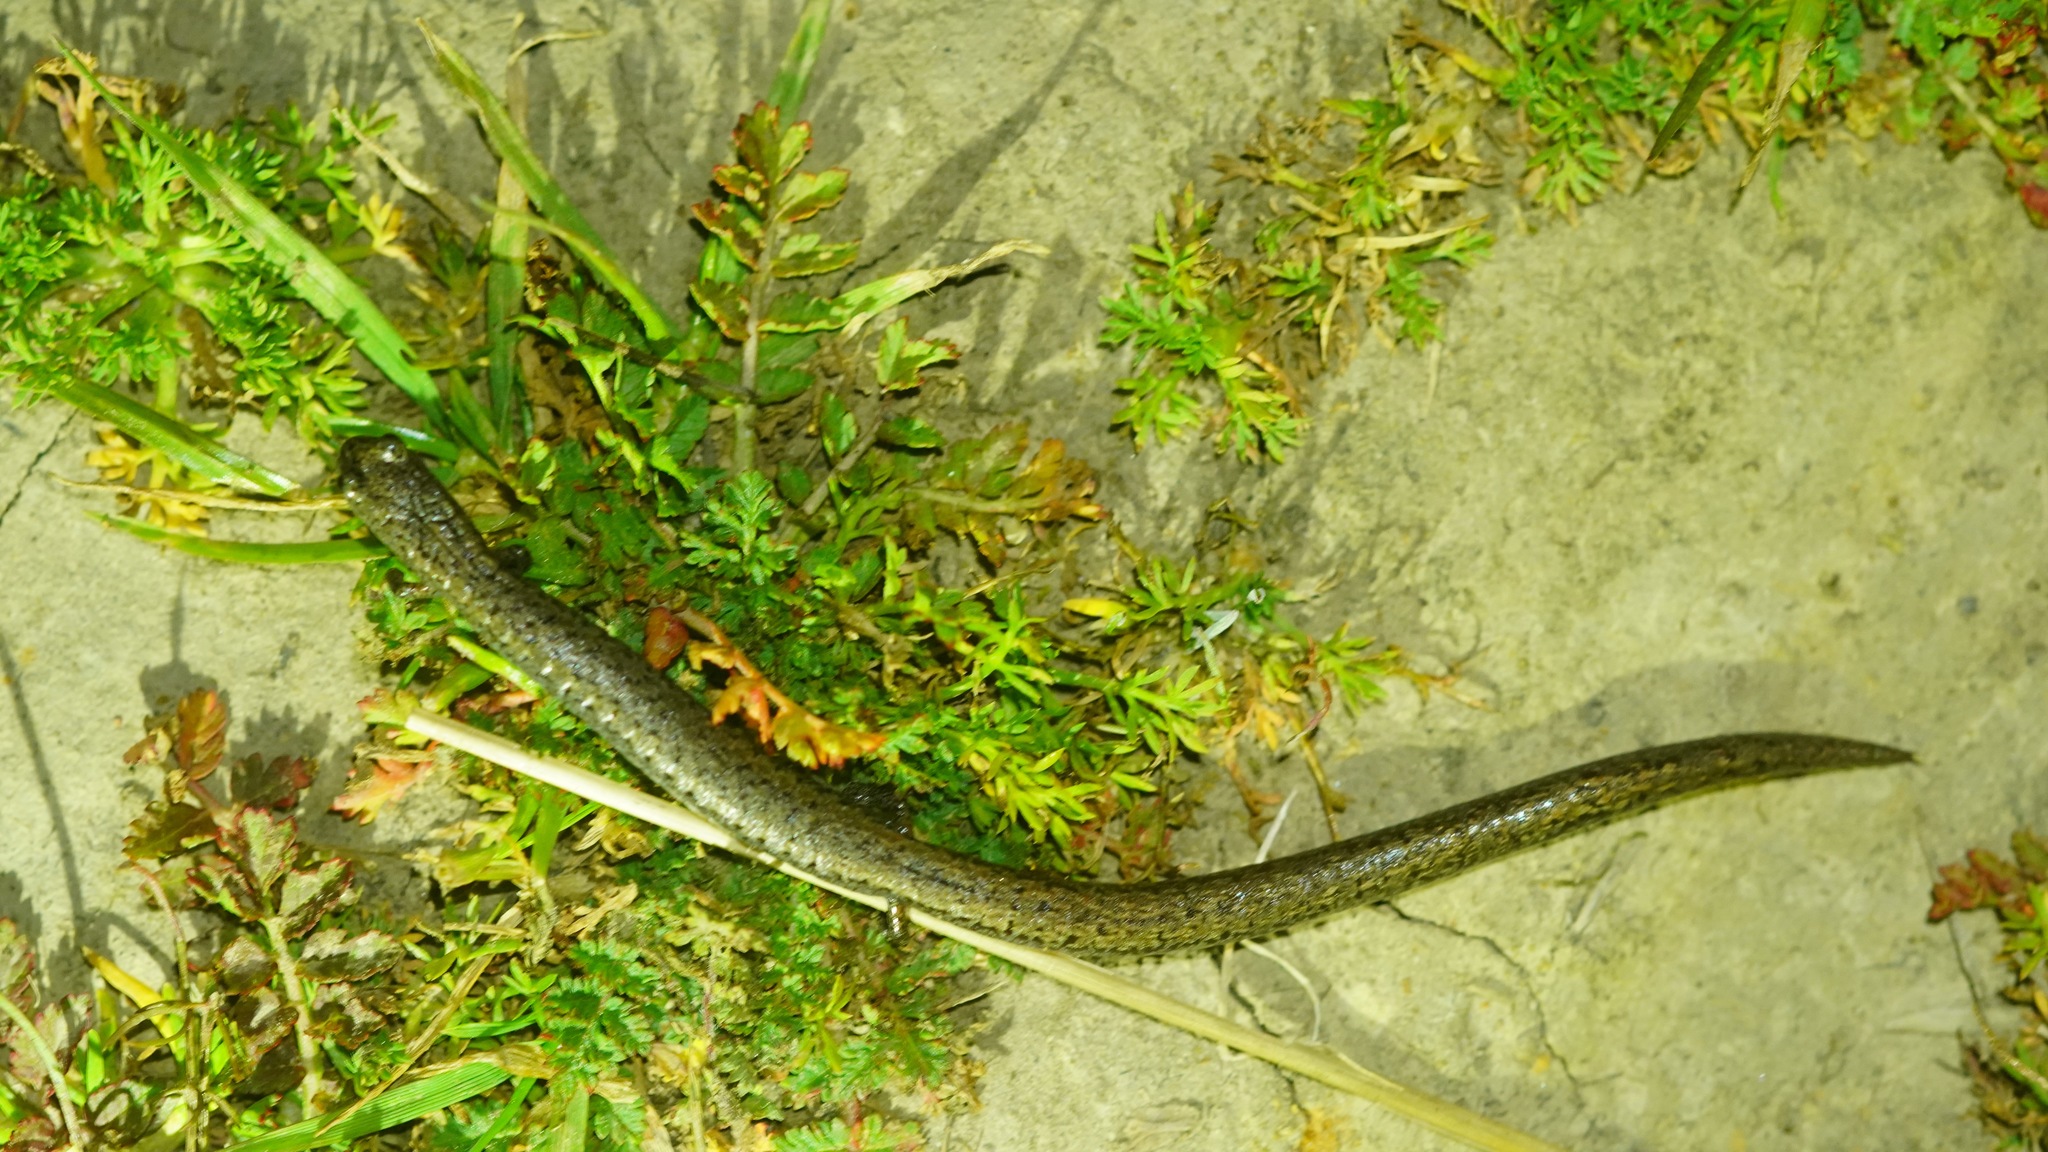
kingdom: Animalia
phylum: Chordata
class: Amphibia
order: Caudata
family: Plethodontidae
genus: Batrachoseps
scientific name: Batrachoseps attenuatus
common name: California slender salamander
